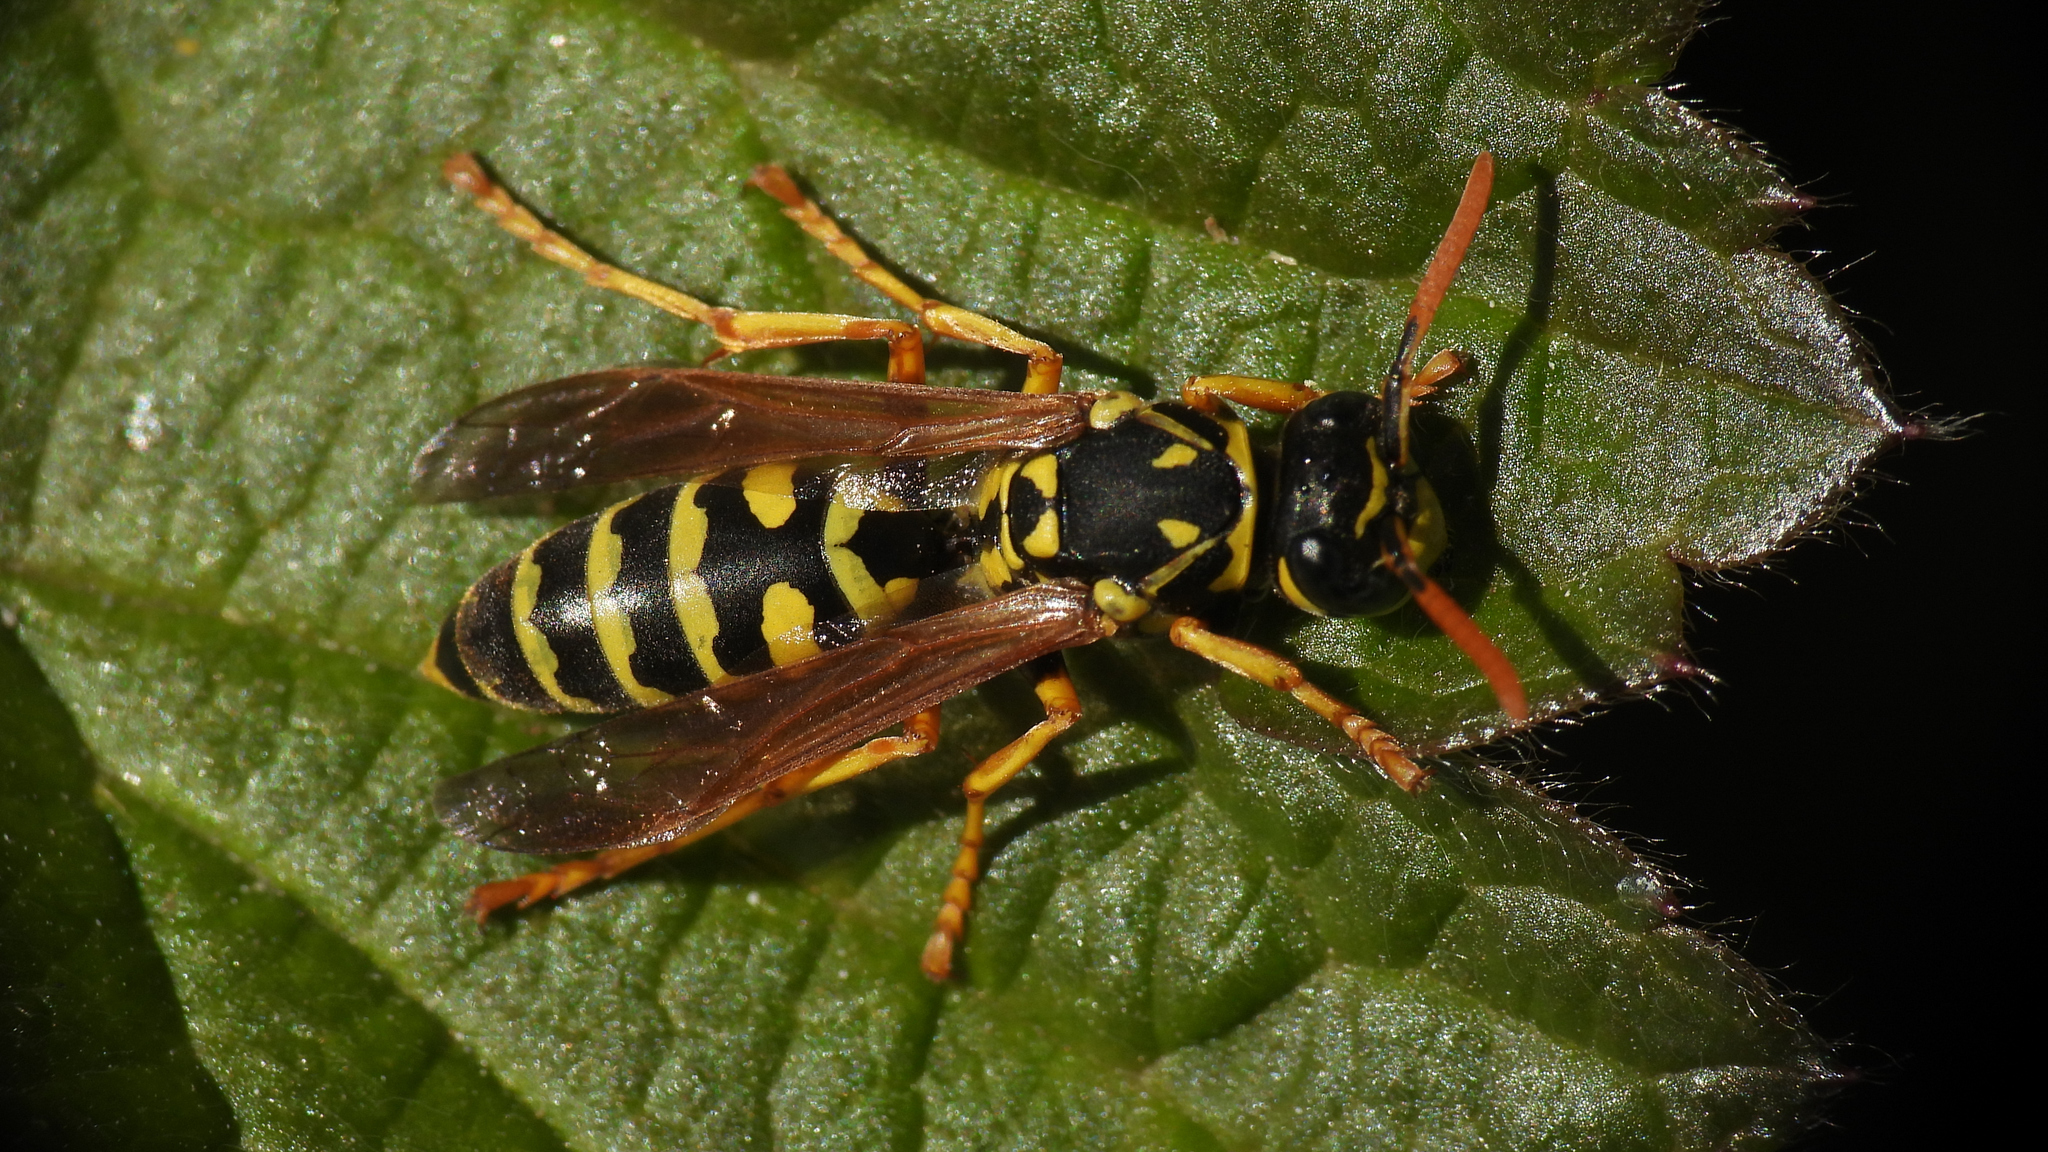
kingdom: Animalia
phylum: Arthropoda
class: Insecta
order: Hymenoptera
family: Eumenidae
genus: Polistes
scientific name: Polistes dominula
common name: Paper wasp
